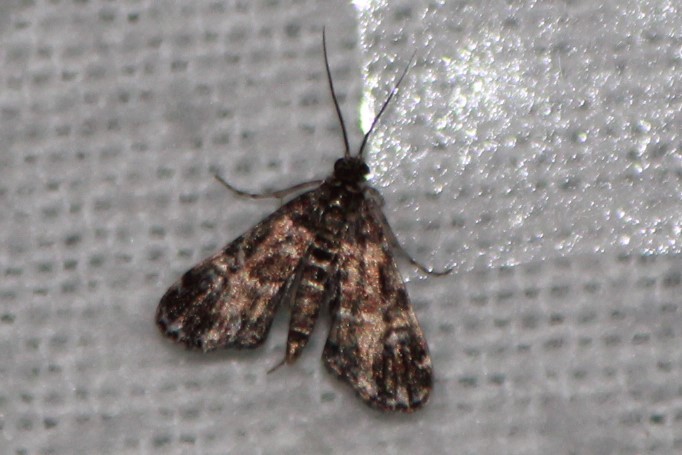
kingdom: Animalia
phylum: Arthropoda
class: Insecta
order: Lepidoptera
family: Crambidae
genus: Elophila
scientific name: Elophila obliteralis
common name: Waterlily leafcutter moth
